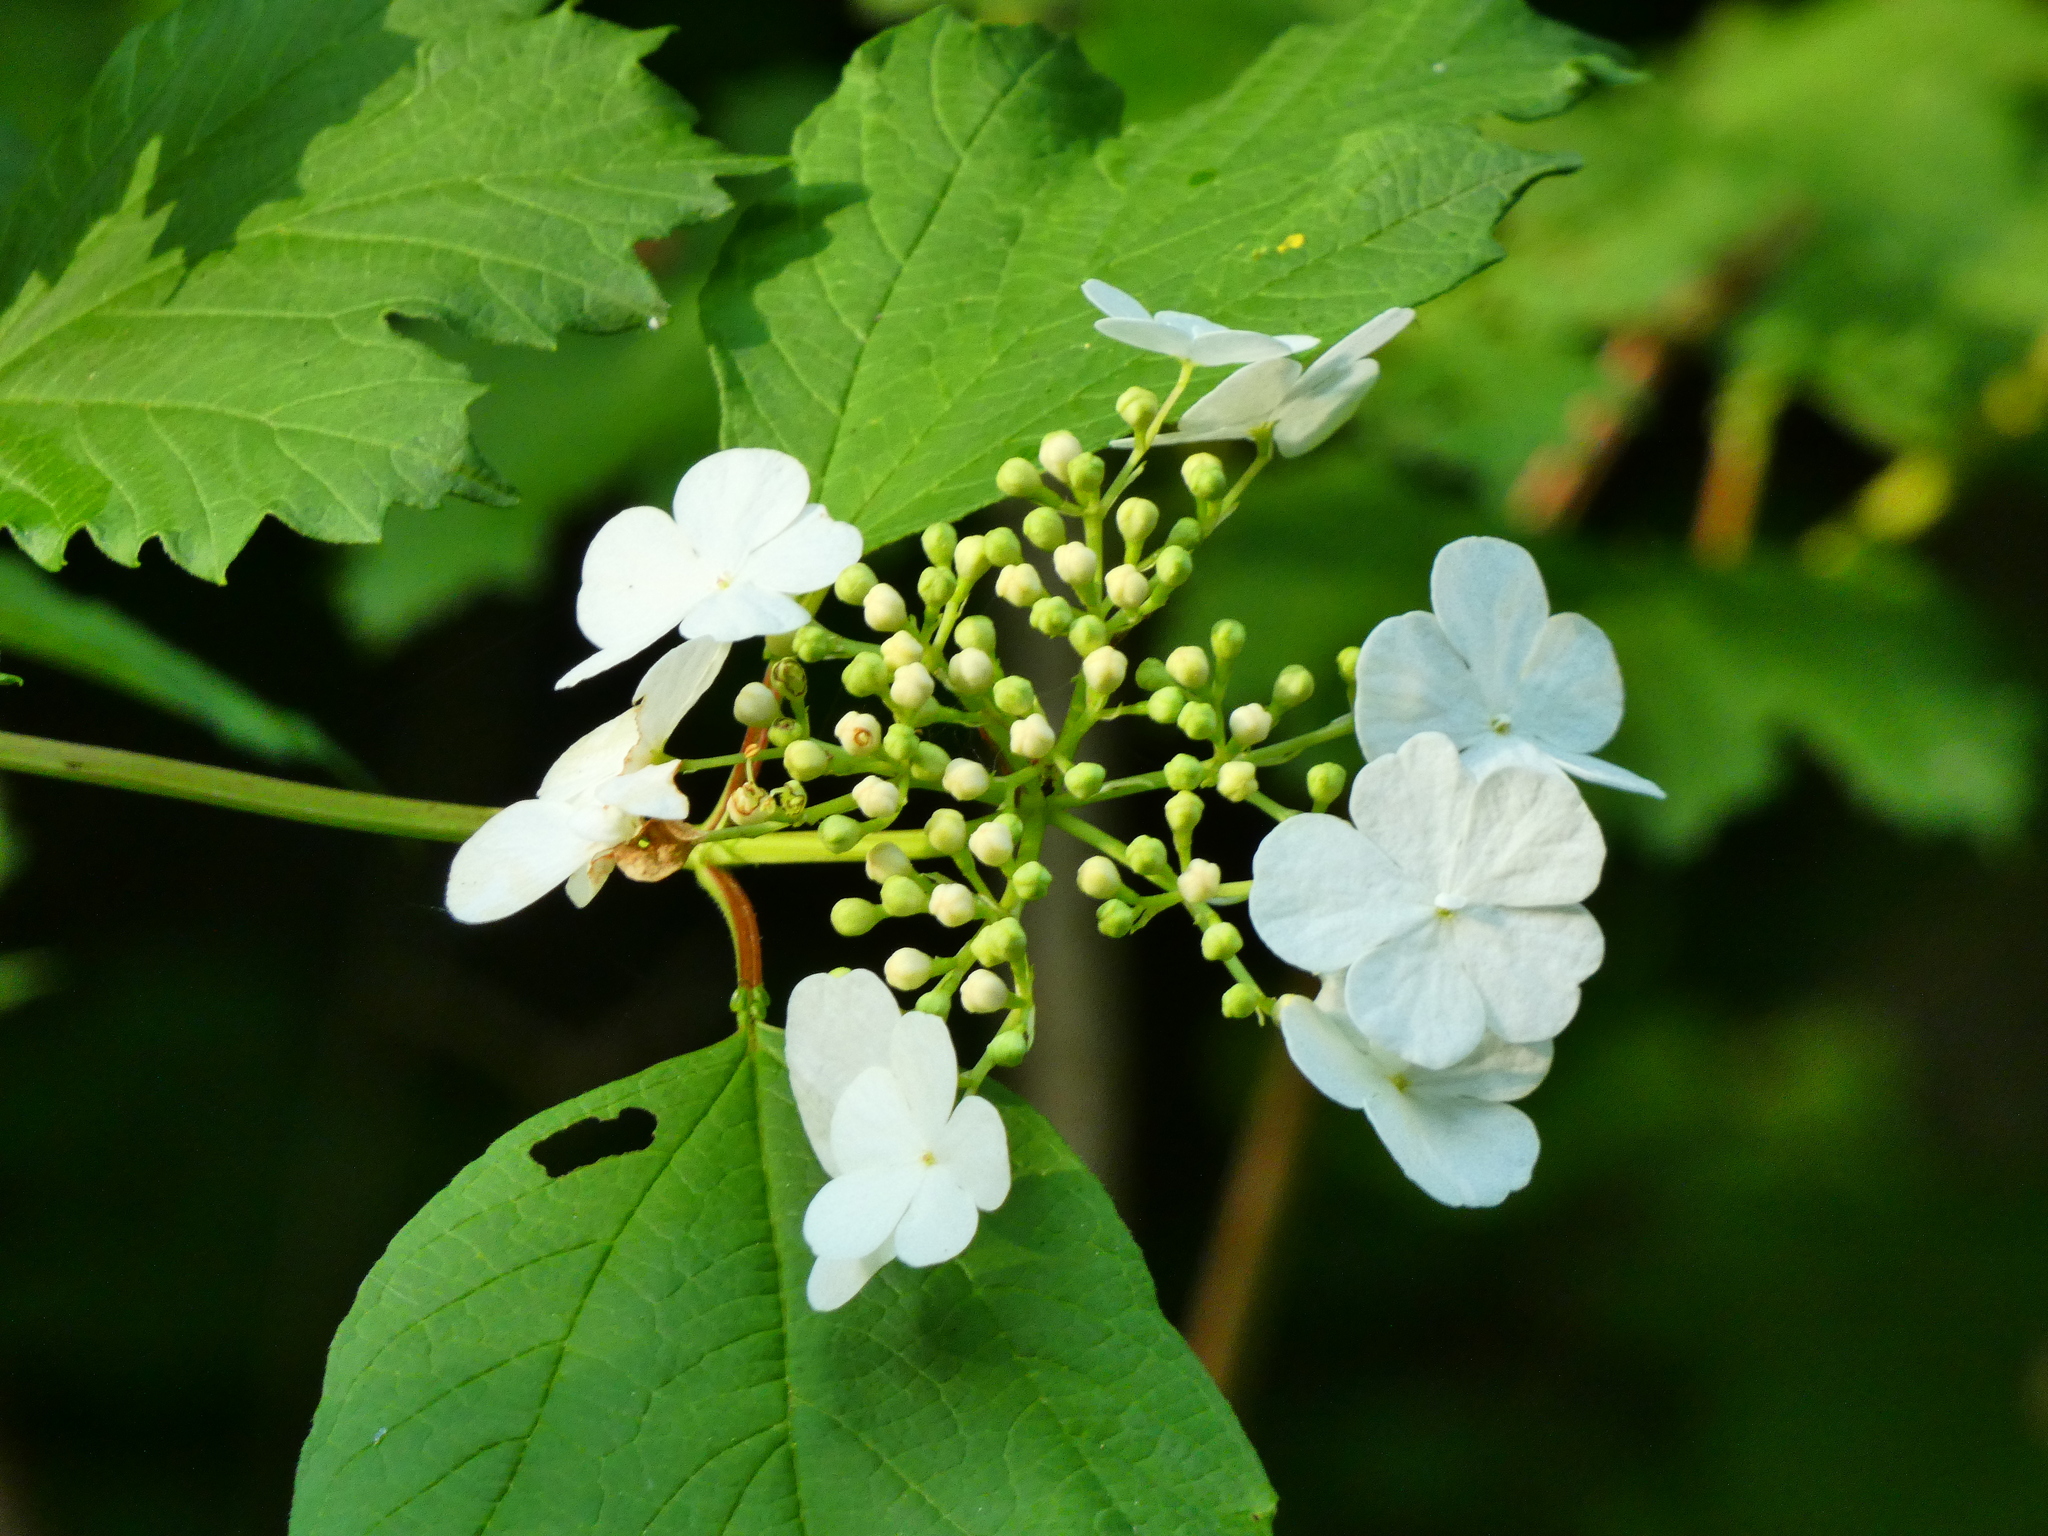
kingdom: Plantae
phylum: Tracheophyta
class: Magnoliopsida
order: Dipsacales
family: Viburnaceae
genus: Viburnum
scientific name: Viburnum opulus
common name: Guelder-rose
